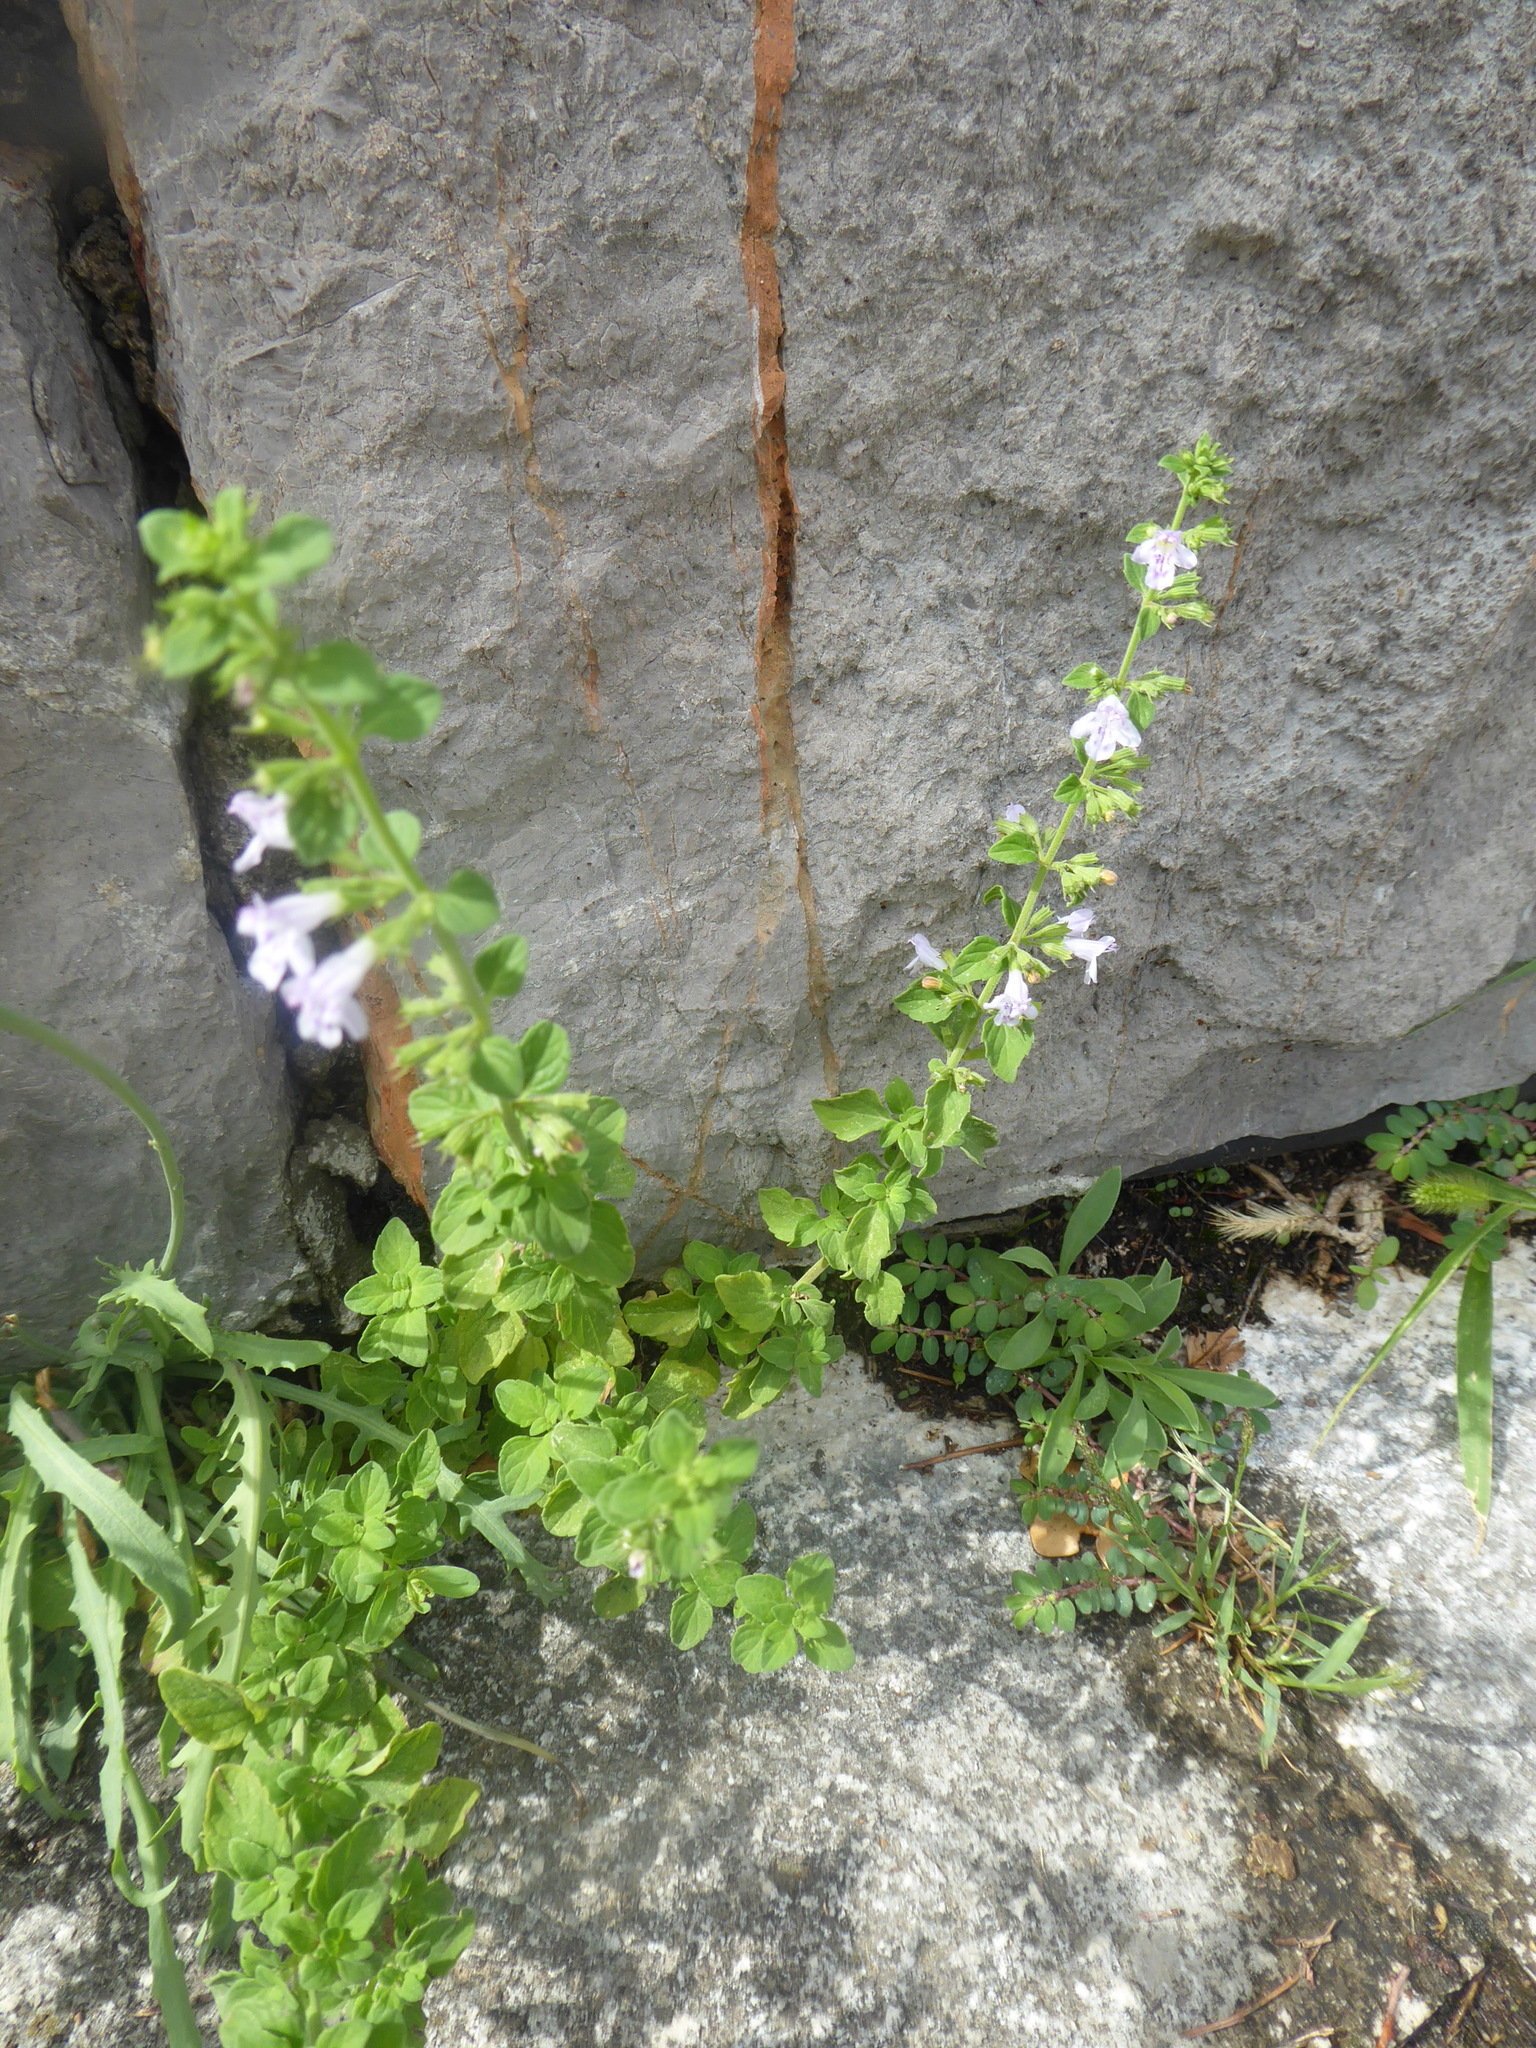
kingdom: Plantae
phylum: Tracheophyta
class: Magnoliopsida
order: Lamiales
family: Lamiaceae
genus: Clinopodium
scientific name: Clinopodium nepeta
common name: Lesser calamint
